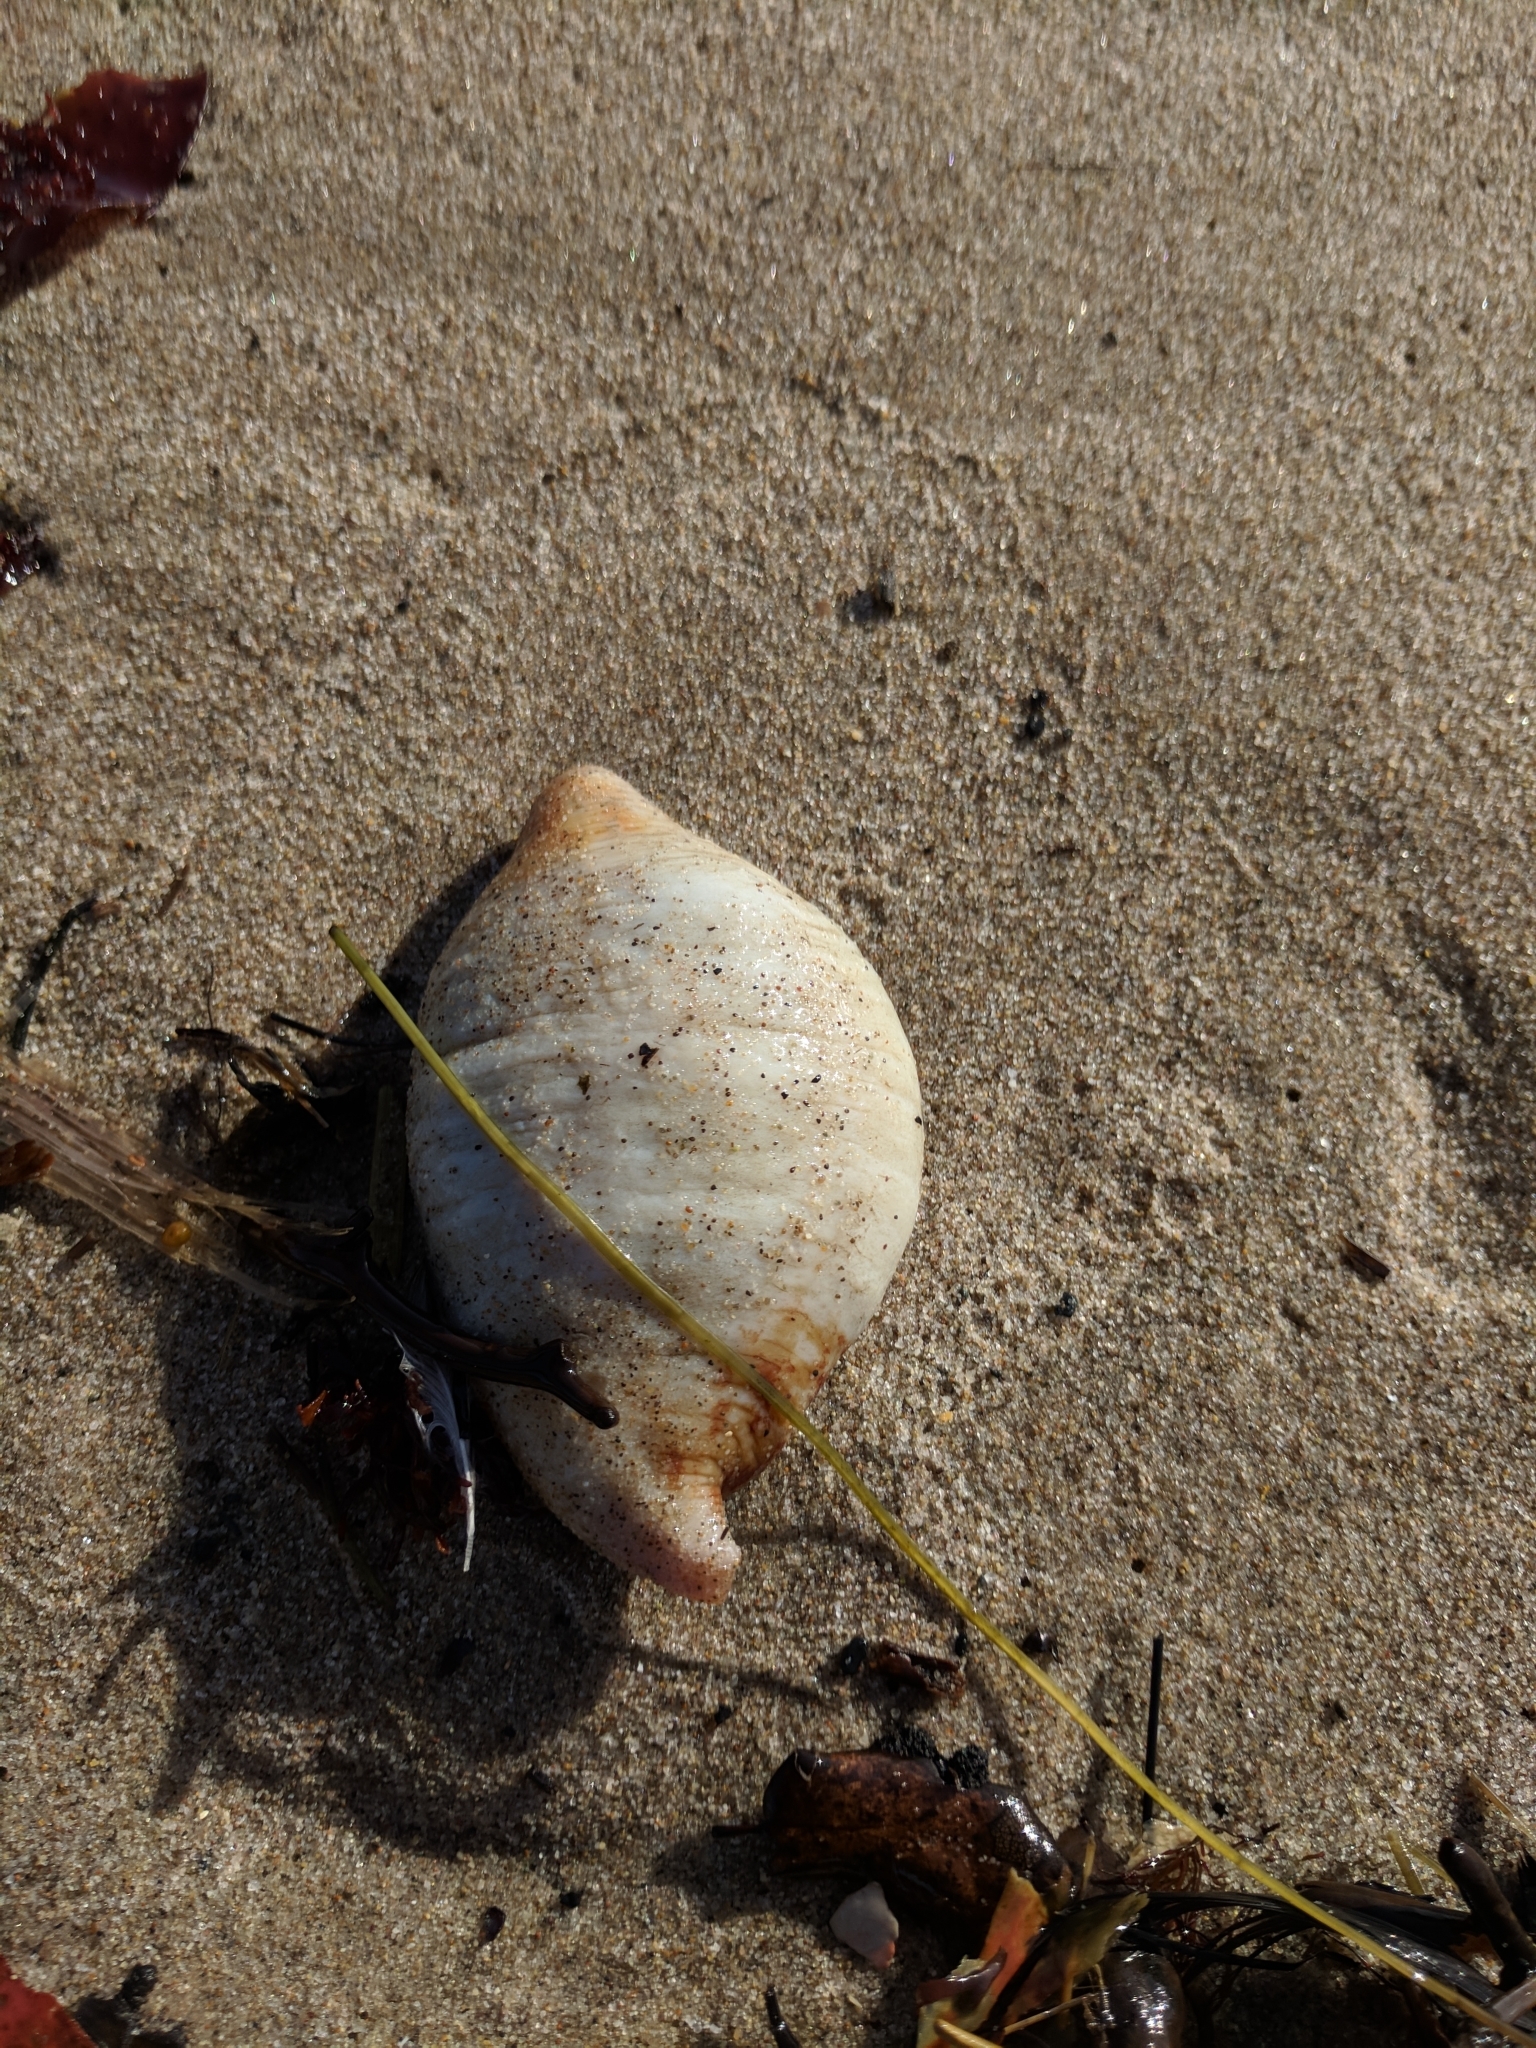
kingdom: Animalia
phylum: Echinodermata
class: Holothuroidea
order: Molpadida
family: Caudinidae
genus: Caudina
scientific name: Caudina arenicola
